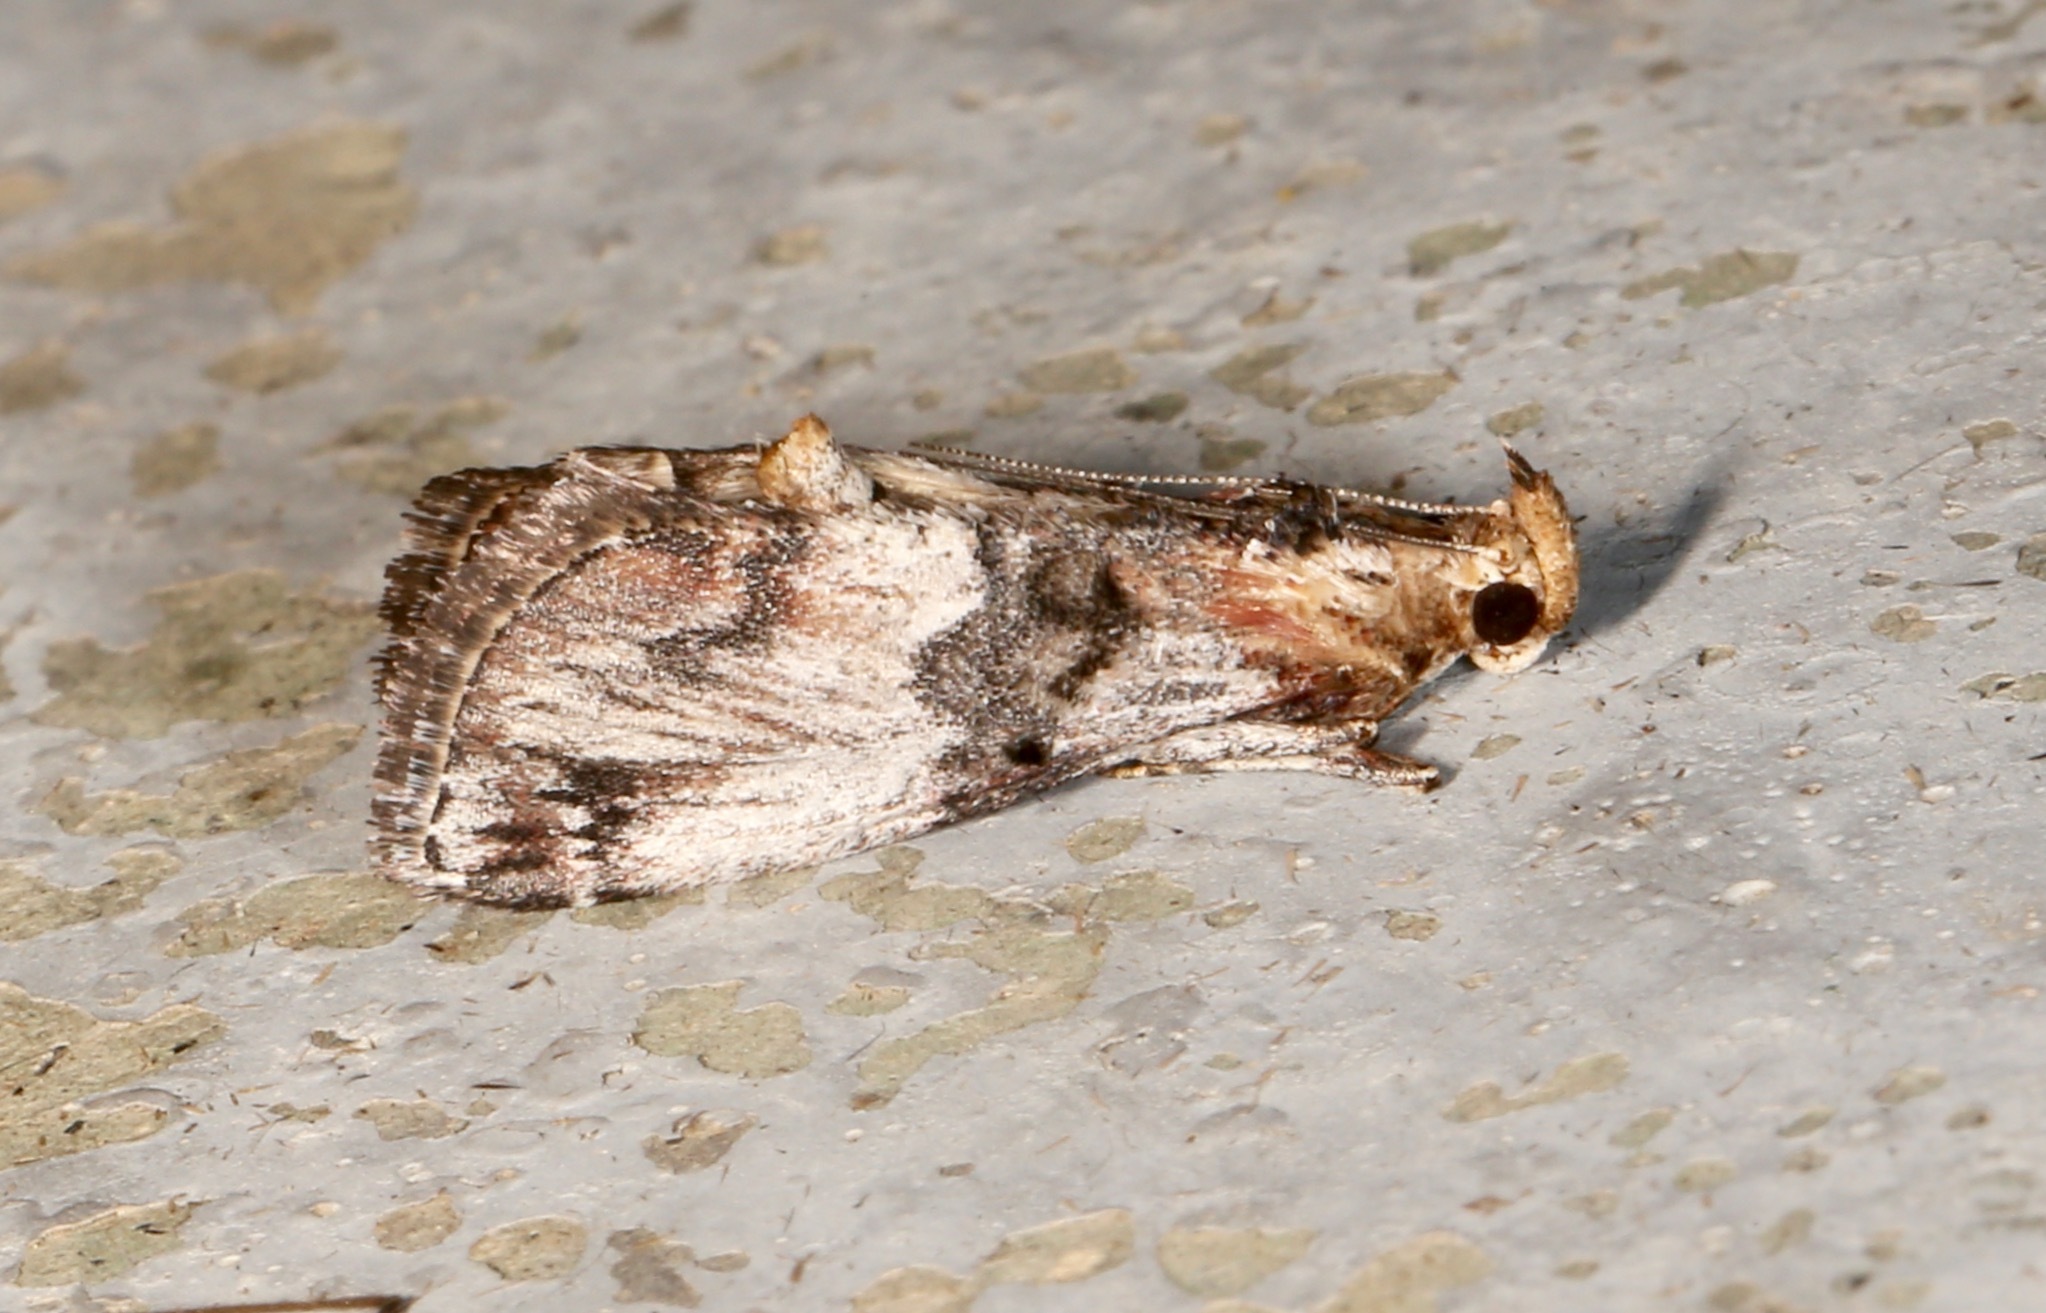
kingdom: Animalia
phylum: Arthropoda
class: Insecta
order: Lepidoptera
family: Pyralidae
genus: Toripalpus
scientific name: Toripalpus trabalis
